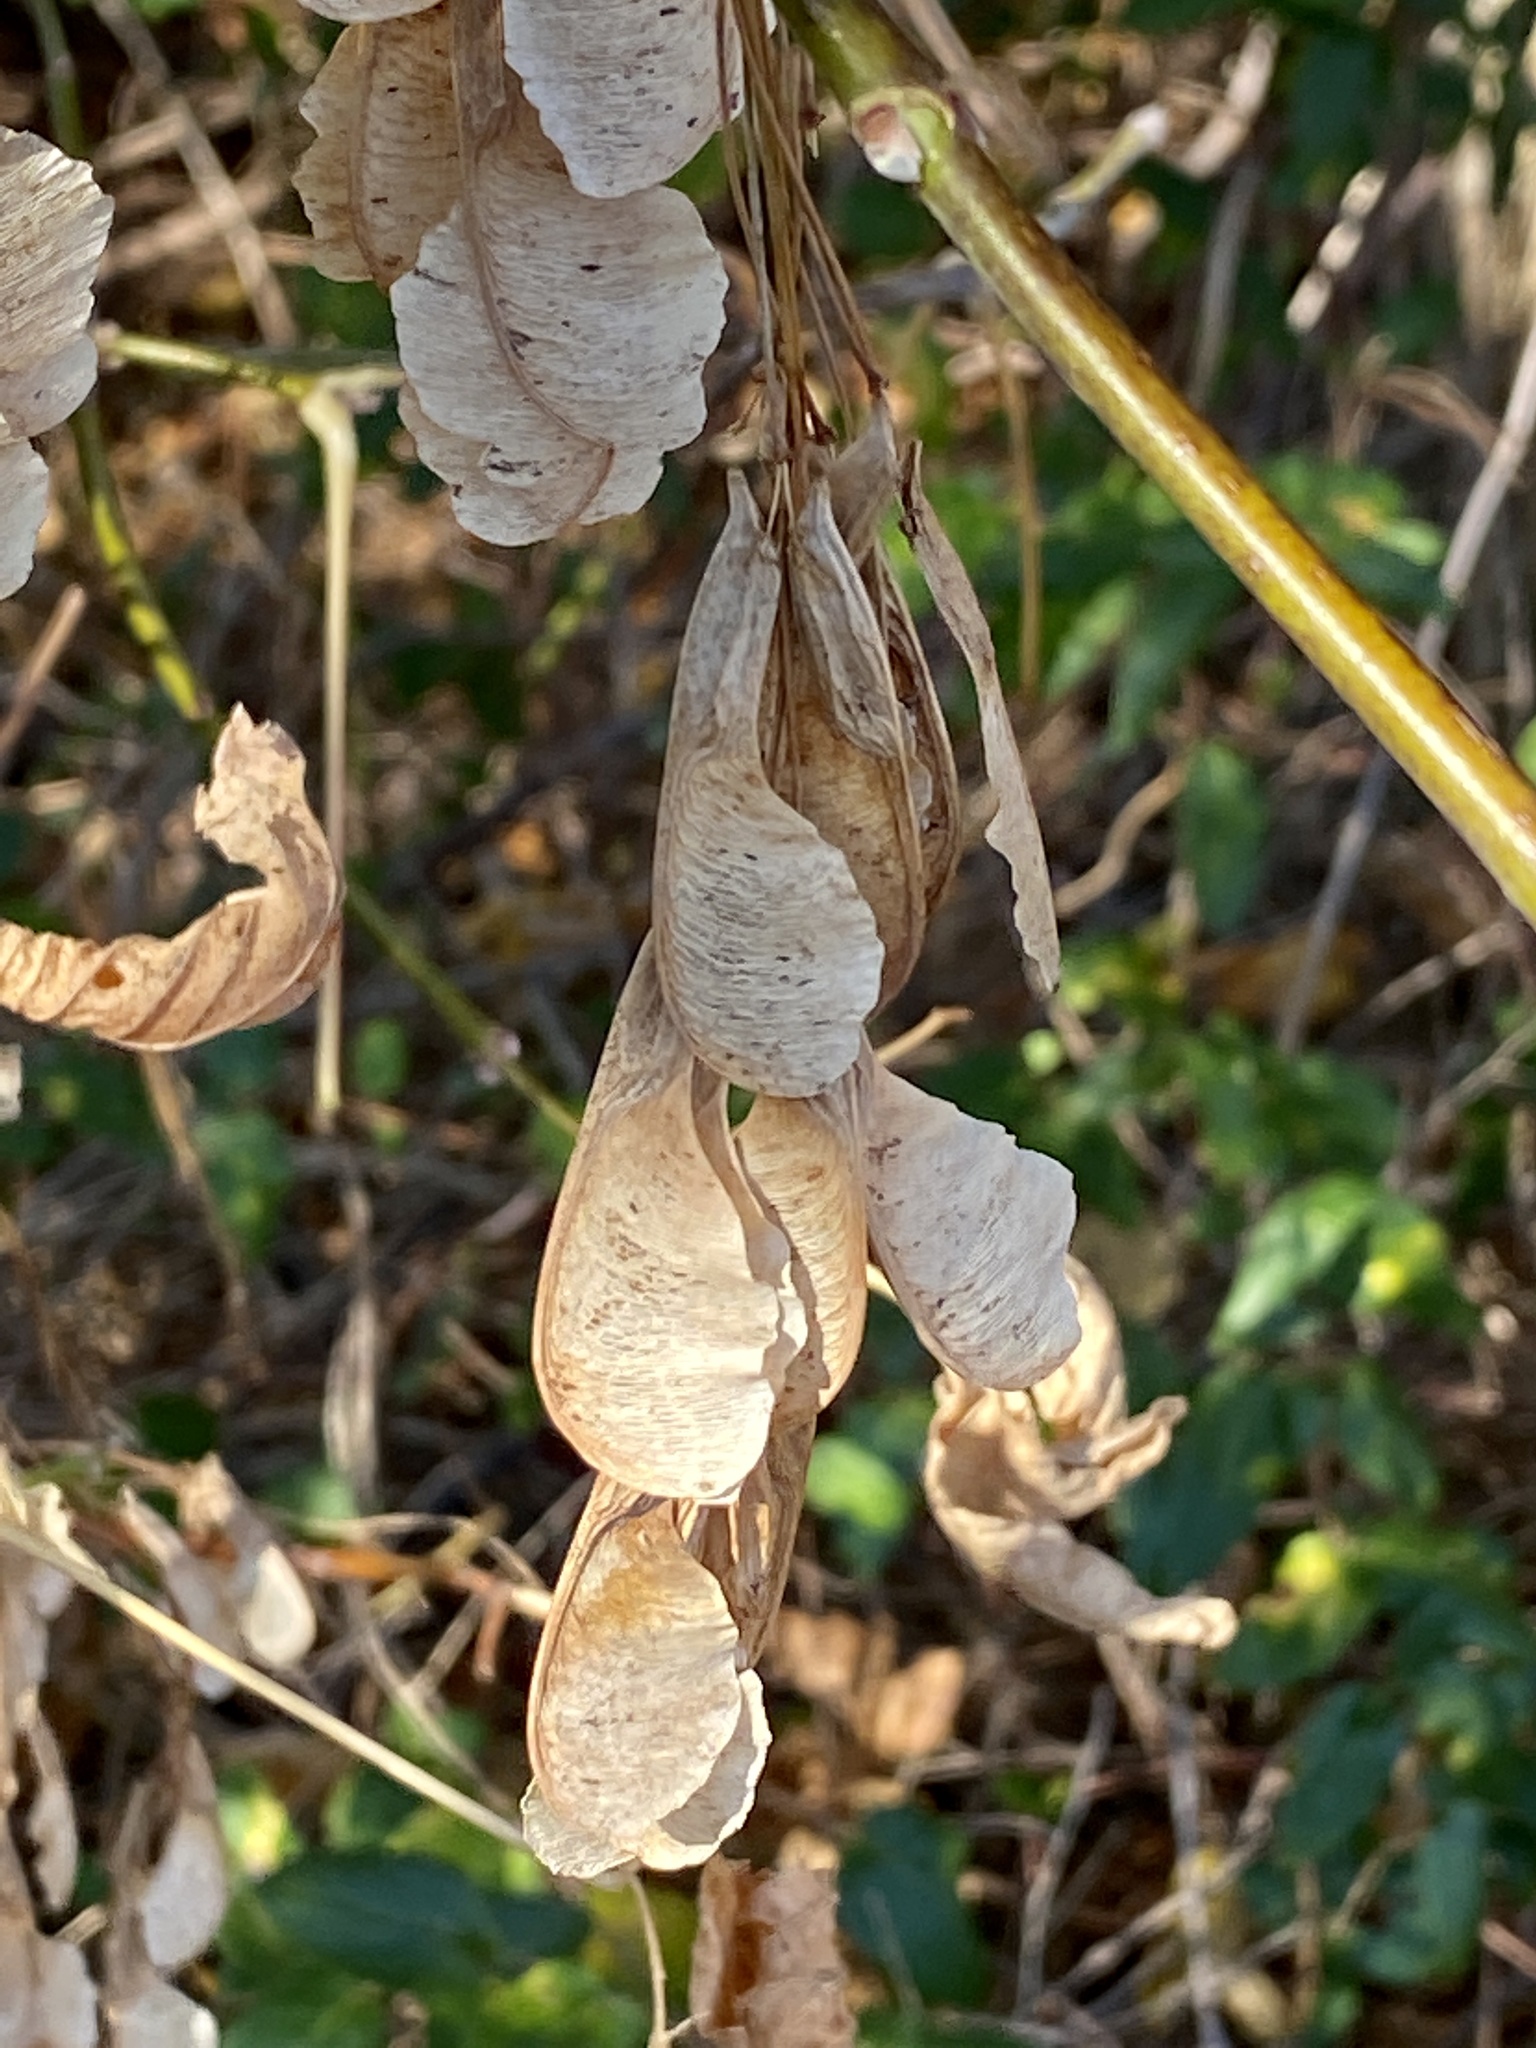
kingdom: Plantae
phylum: Tracheophyta
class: Magnoliopsida
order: Sapindales
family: Sapindaceae
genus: Acer
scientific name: Acer negundo
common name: Ashleaf maple
